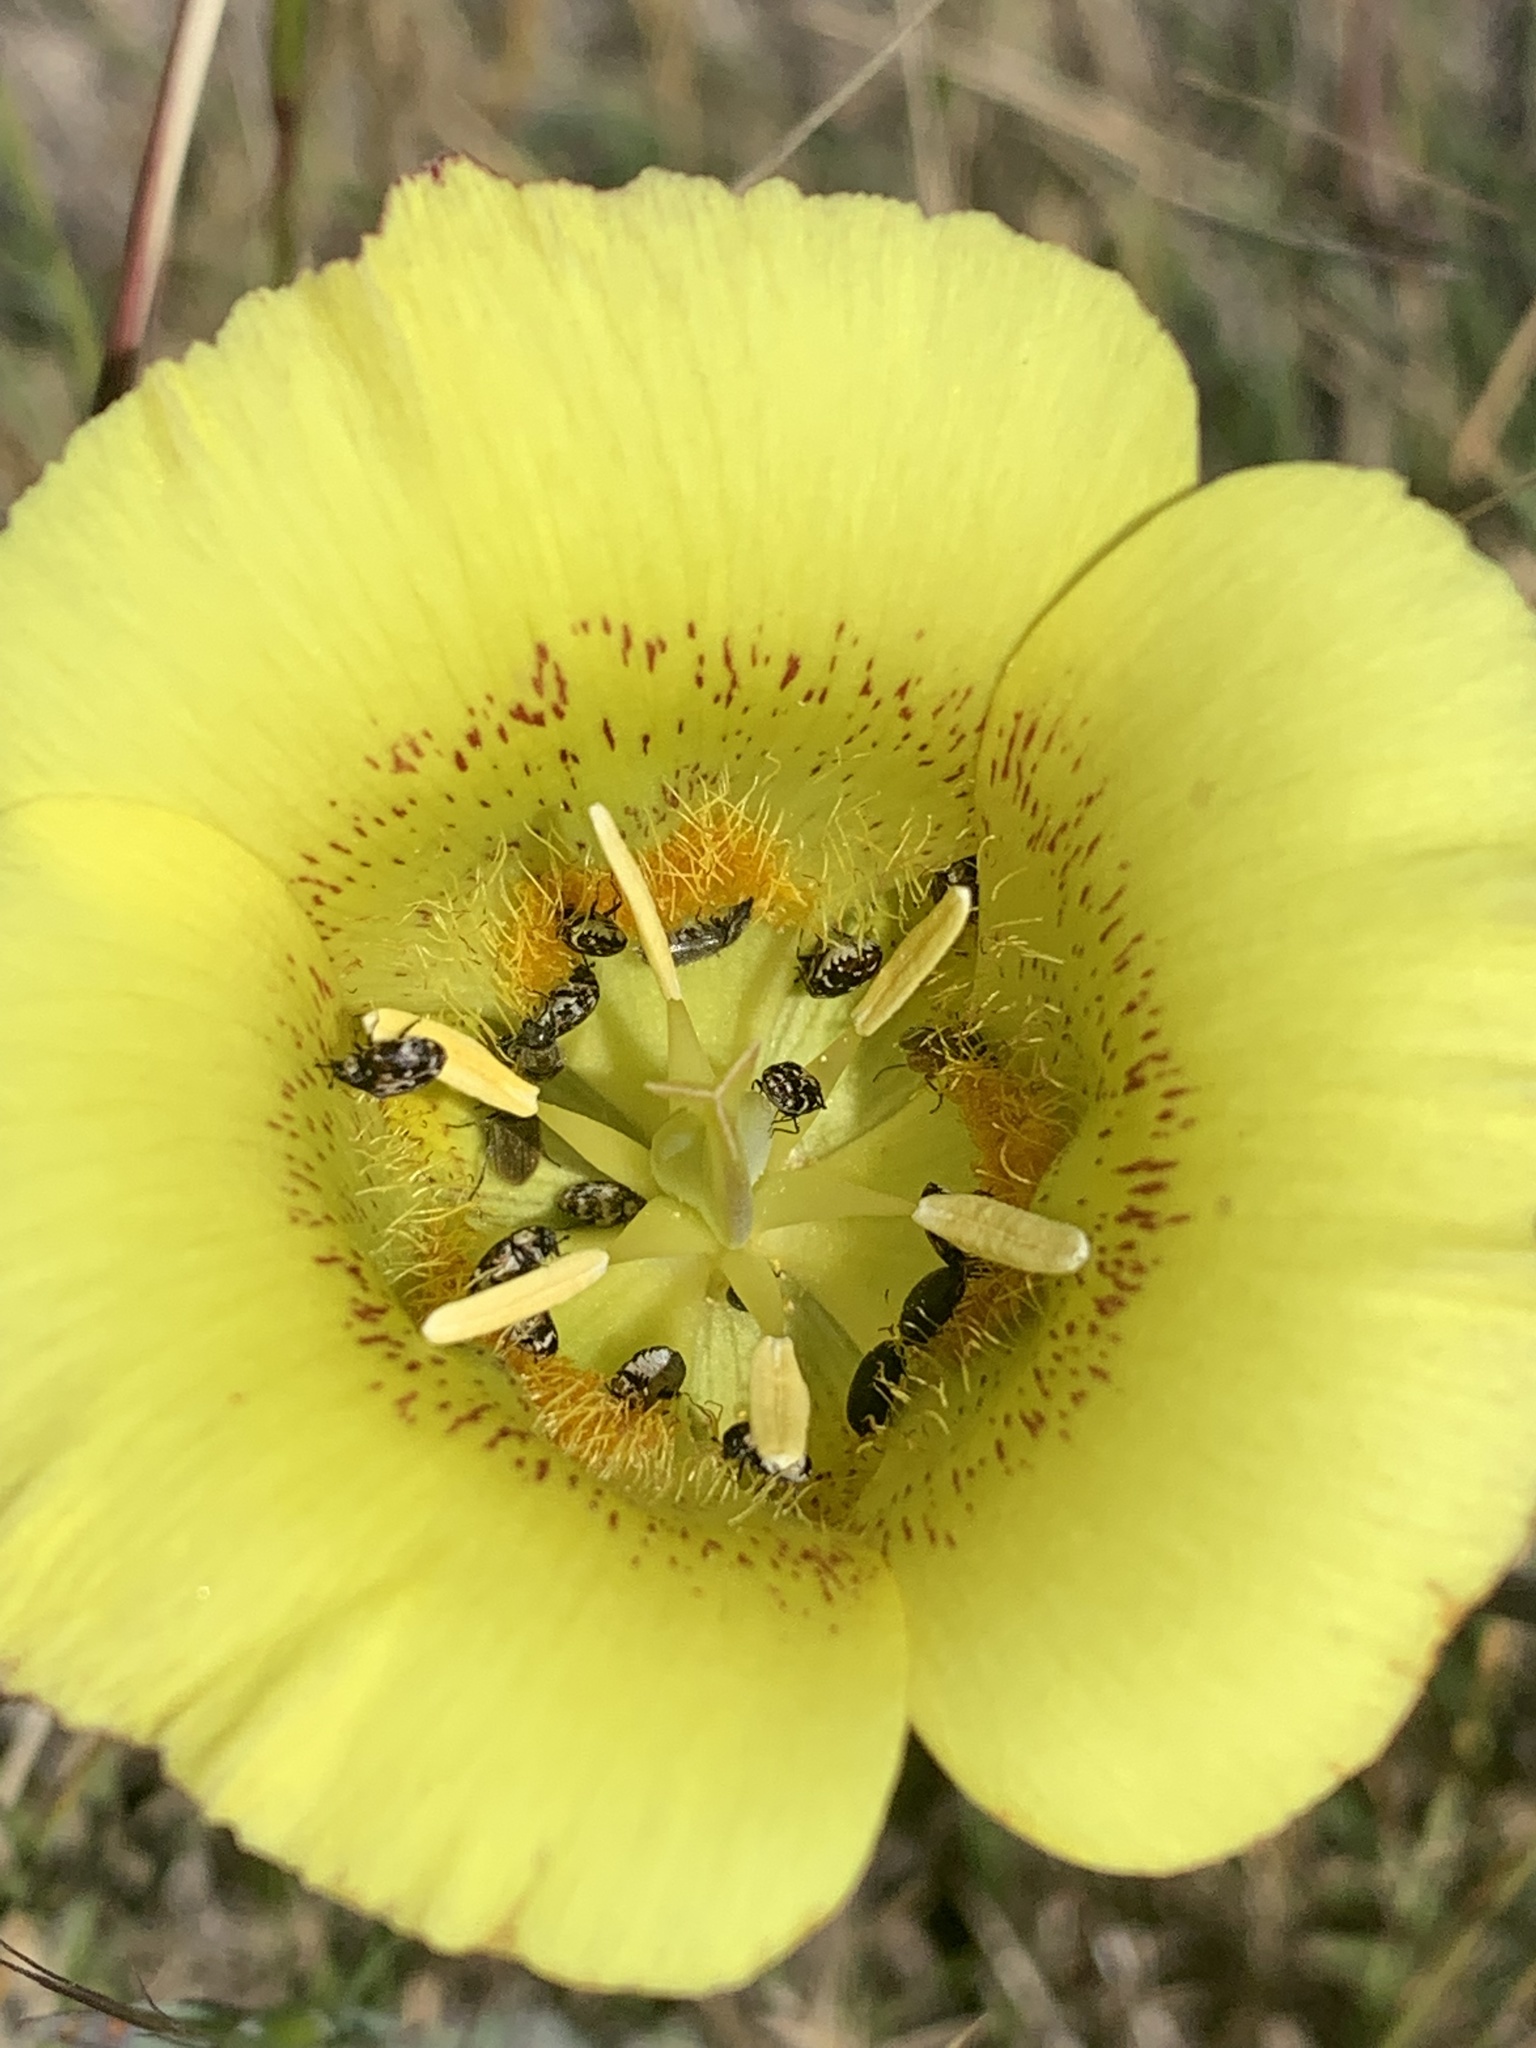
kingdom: Plantae
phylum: Tracheophyta
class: Liliopsida
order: Liliales
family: Liliaceae
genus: Calochortus
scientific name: Calochortus luteus
